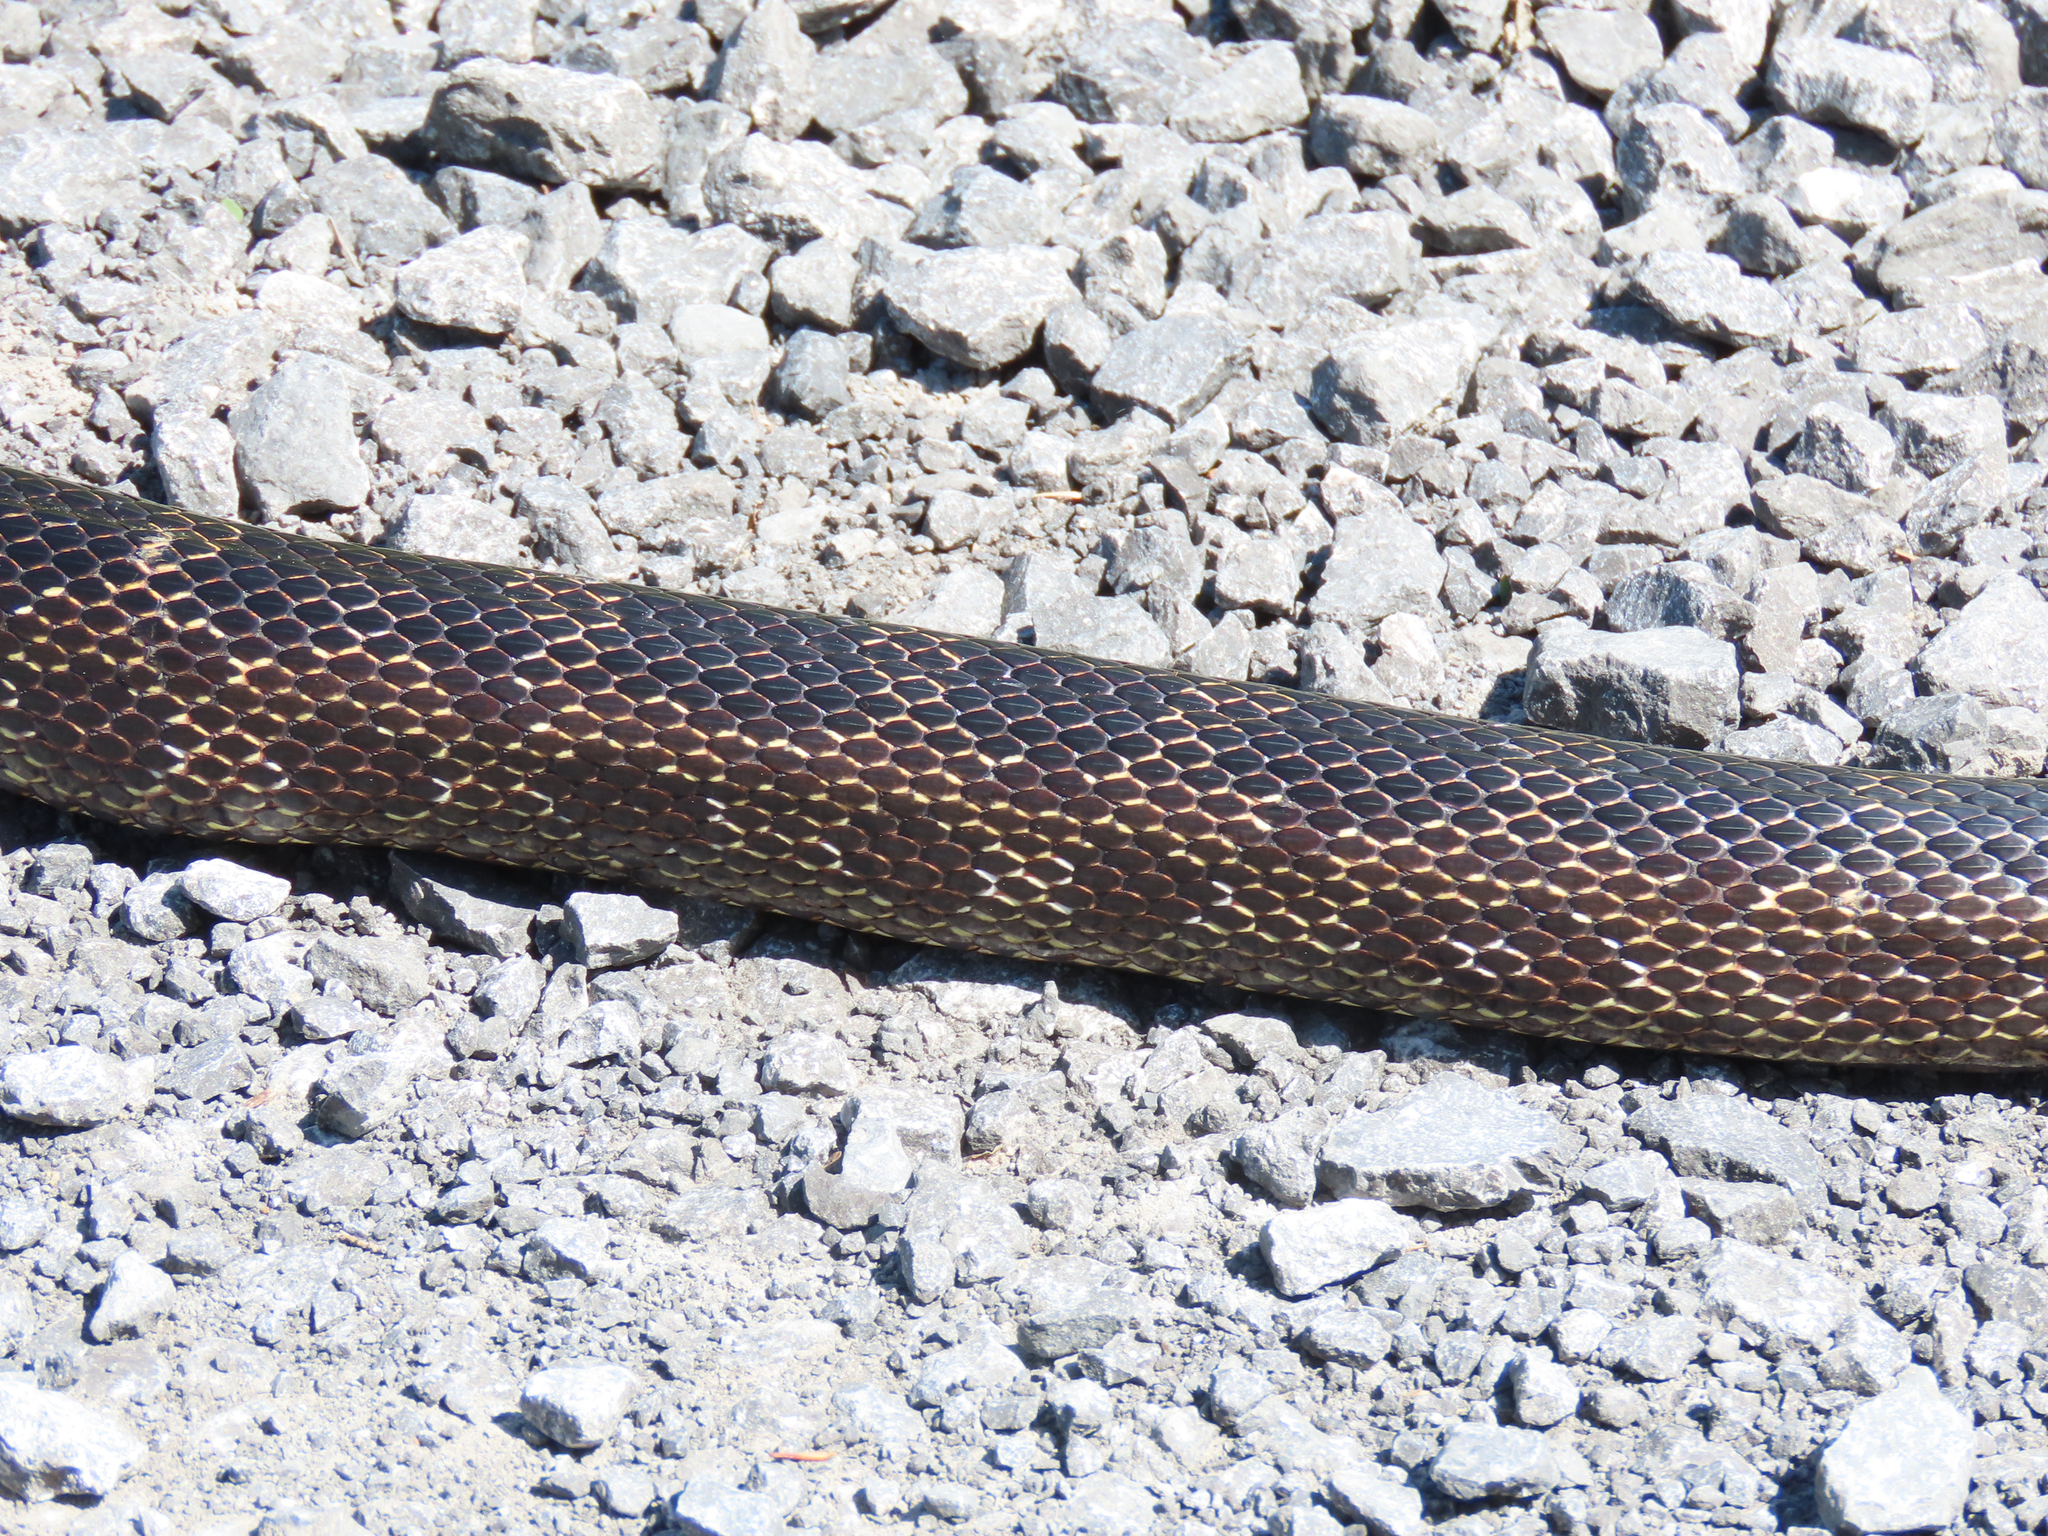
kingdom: Animalia
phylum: Chordata
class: Squamata
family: Colubridae
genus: Pantherophis
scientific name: Pantherophis spiloides
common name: Gray rat snake
